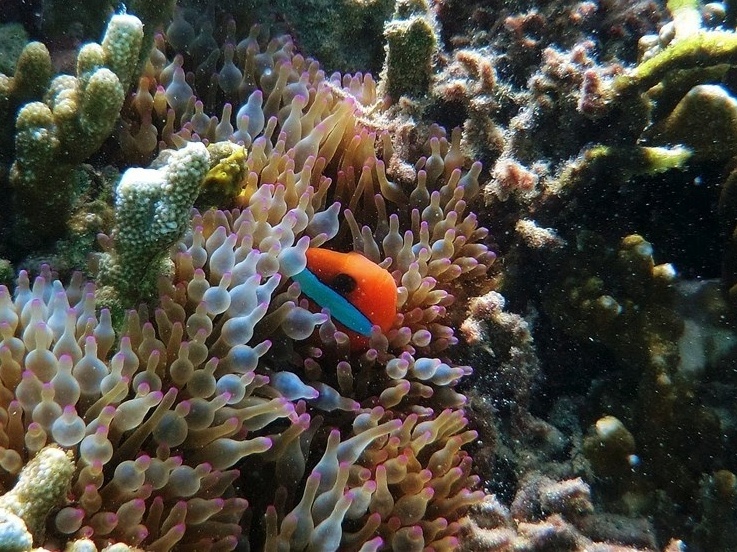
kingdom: Animalia
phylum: Chordata
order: Perciformes
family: Pomacentridae
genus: Amphiprion
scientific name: Amphiprion melanopus
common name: Black anemonefish
